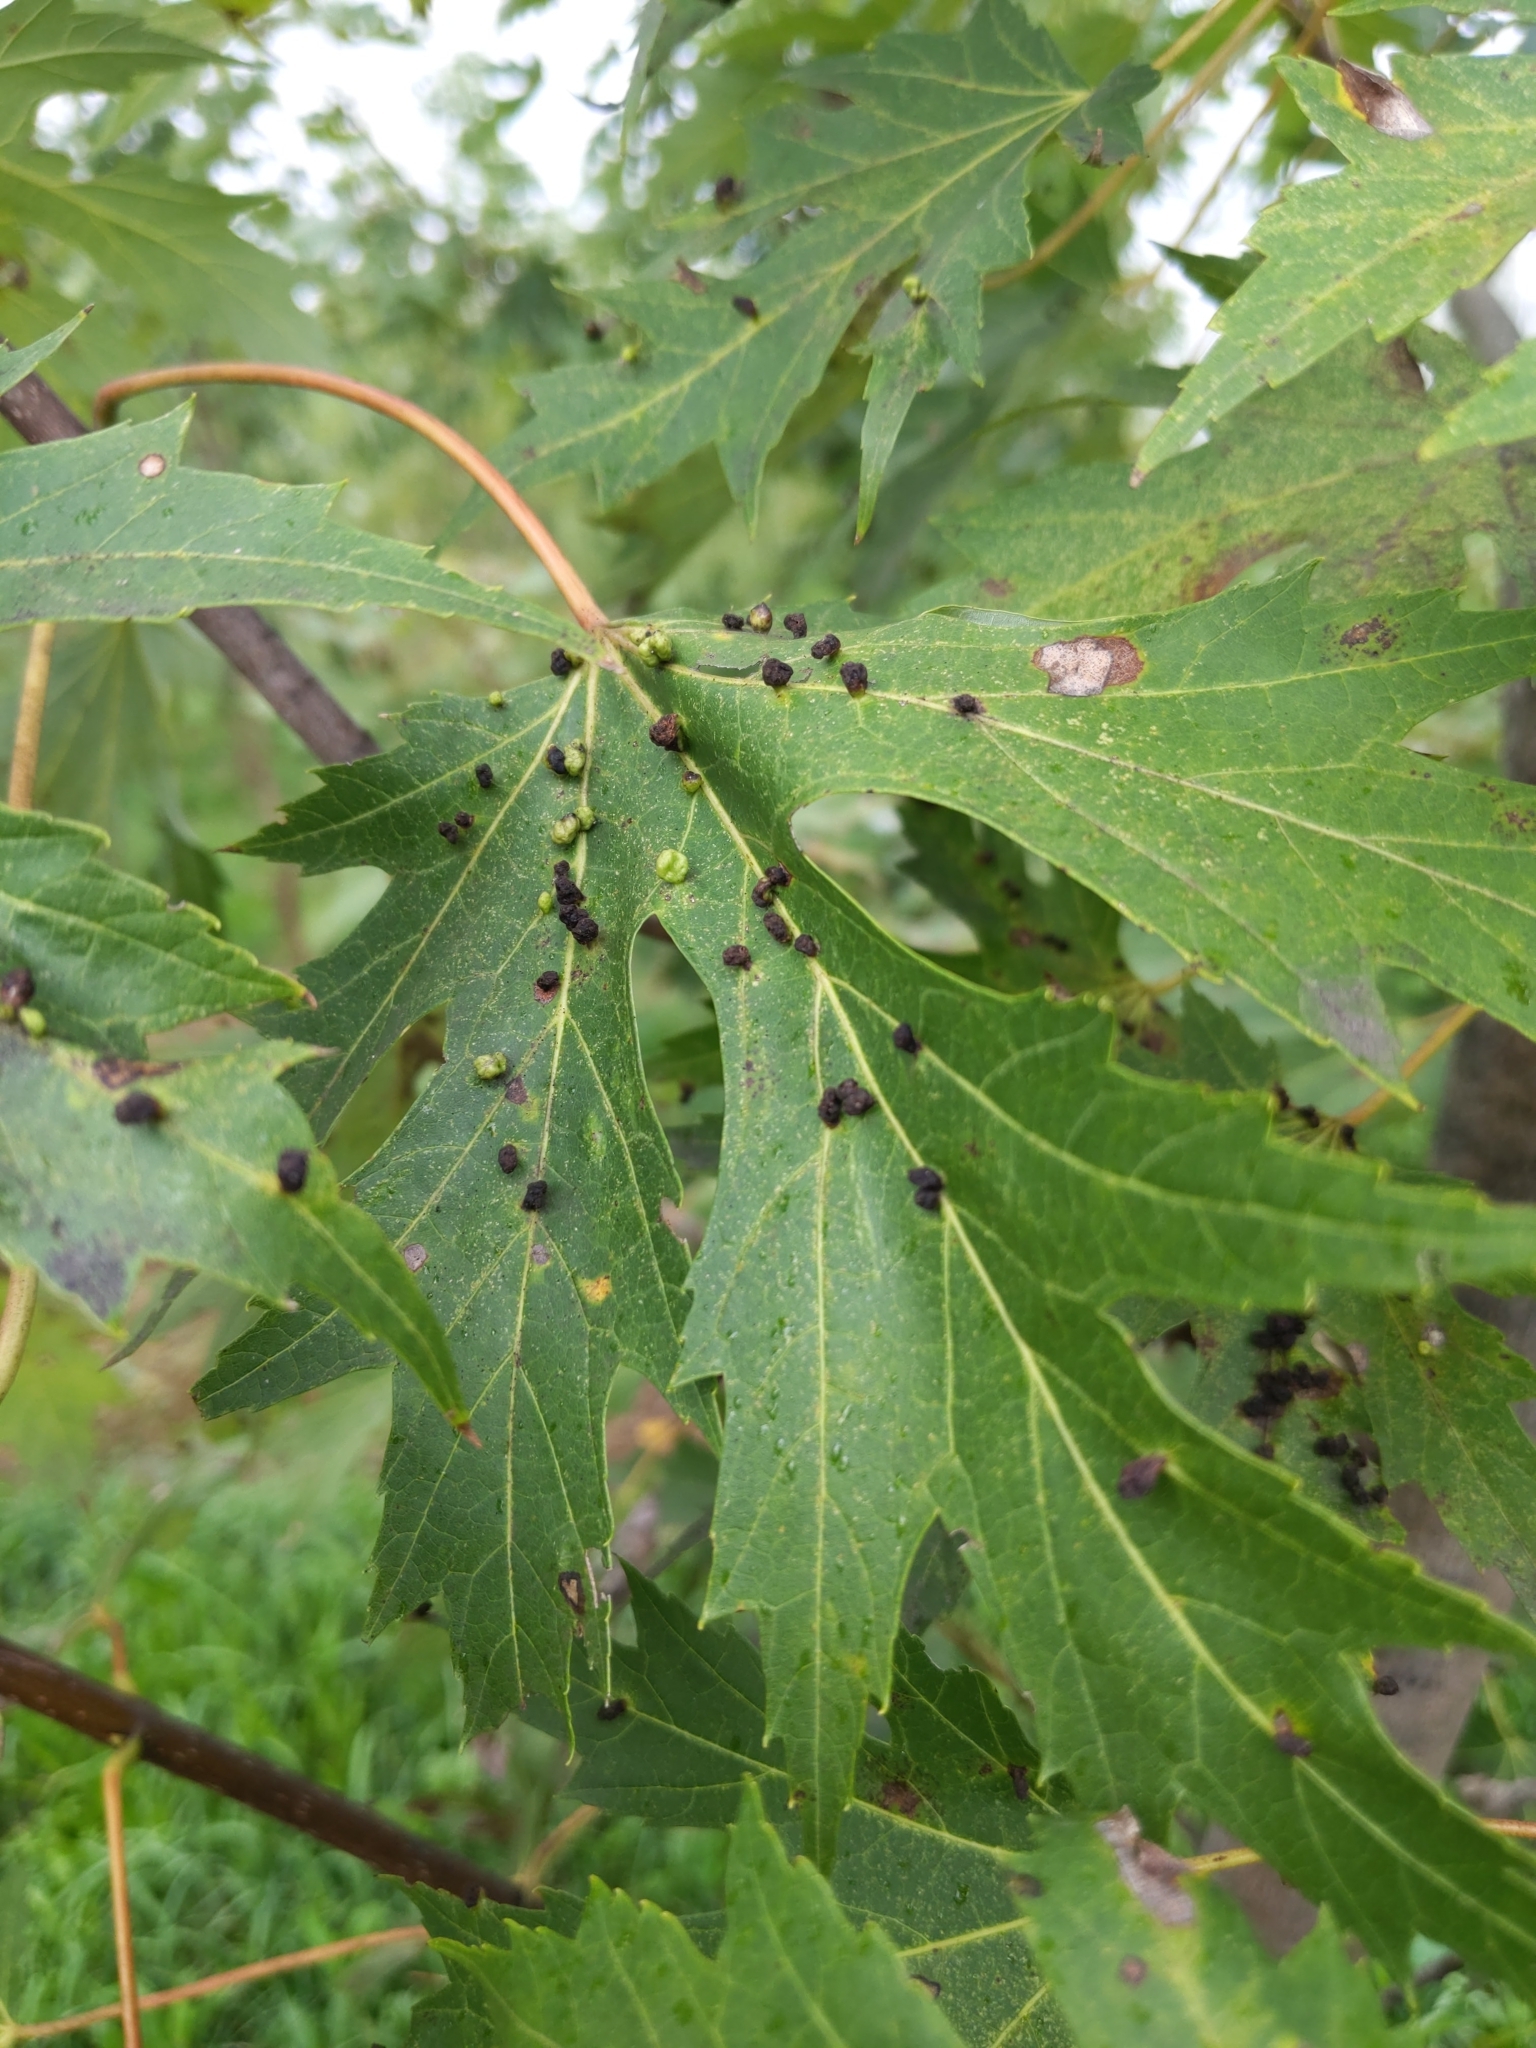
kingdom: Animalia
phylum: Arthropoda
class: Arachnida
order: Trombidiformes
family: Eriophyidae
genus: Vasates
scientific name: Vasates quadripedes
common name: Maple bladder gall mite
